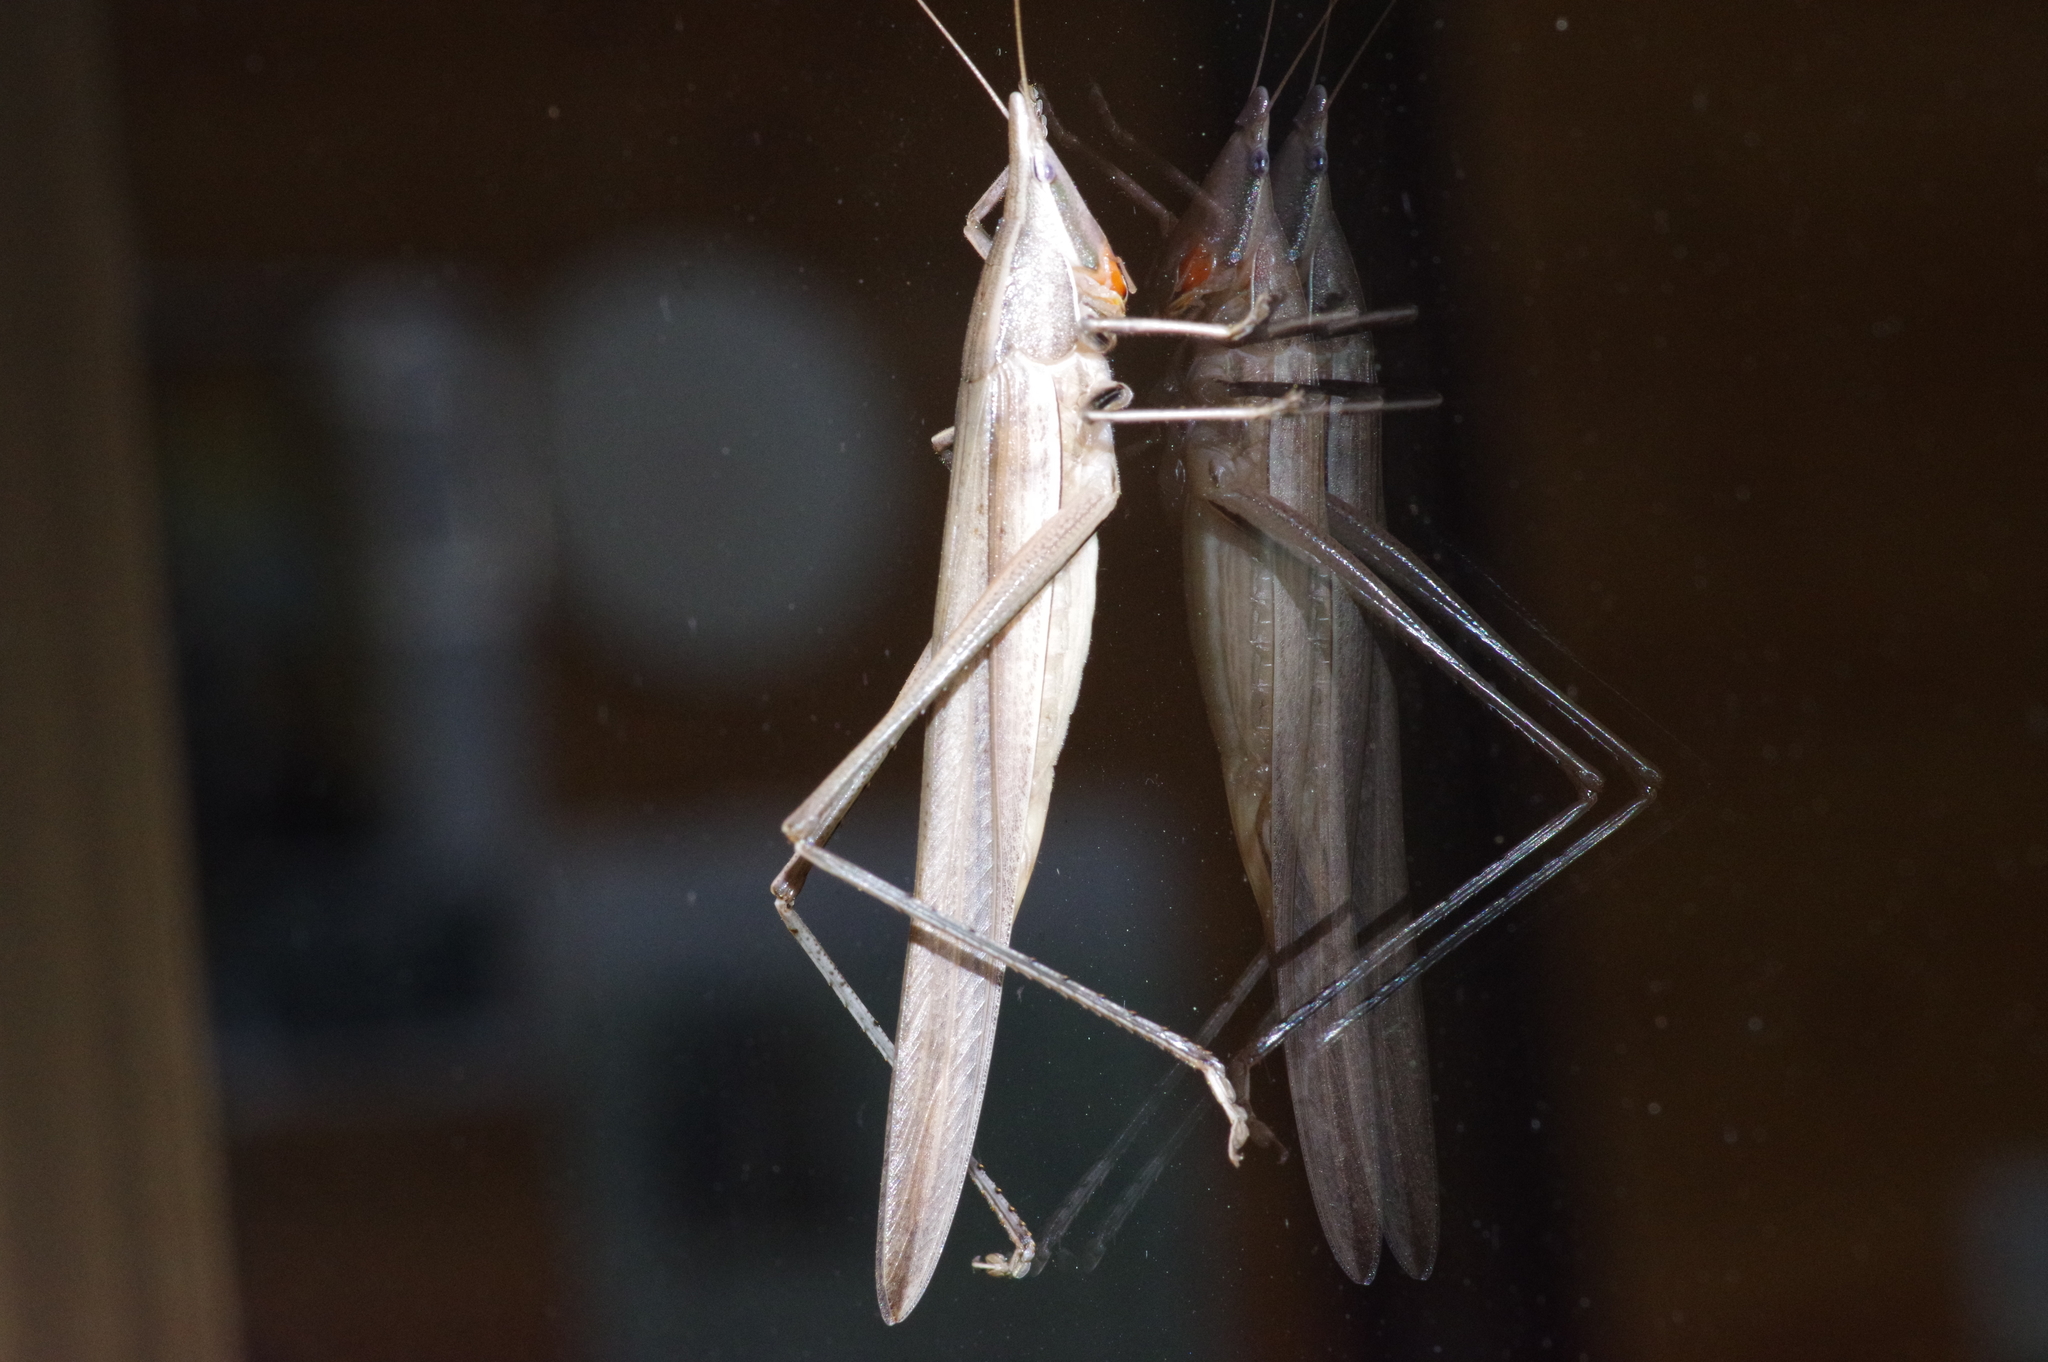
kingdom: Animalia
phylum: Arthropoda
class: Insecta
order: Orthoptera
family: Tettigoniidae
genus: Euconocephalus
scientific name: Euconocephalus nasutus
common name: Grasshopper
